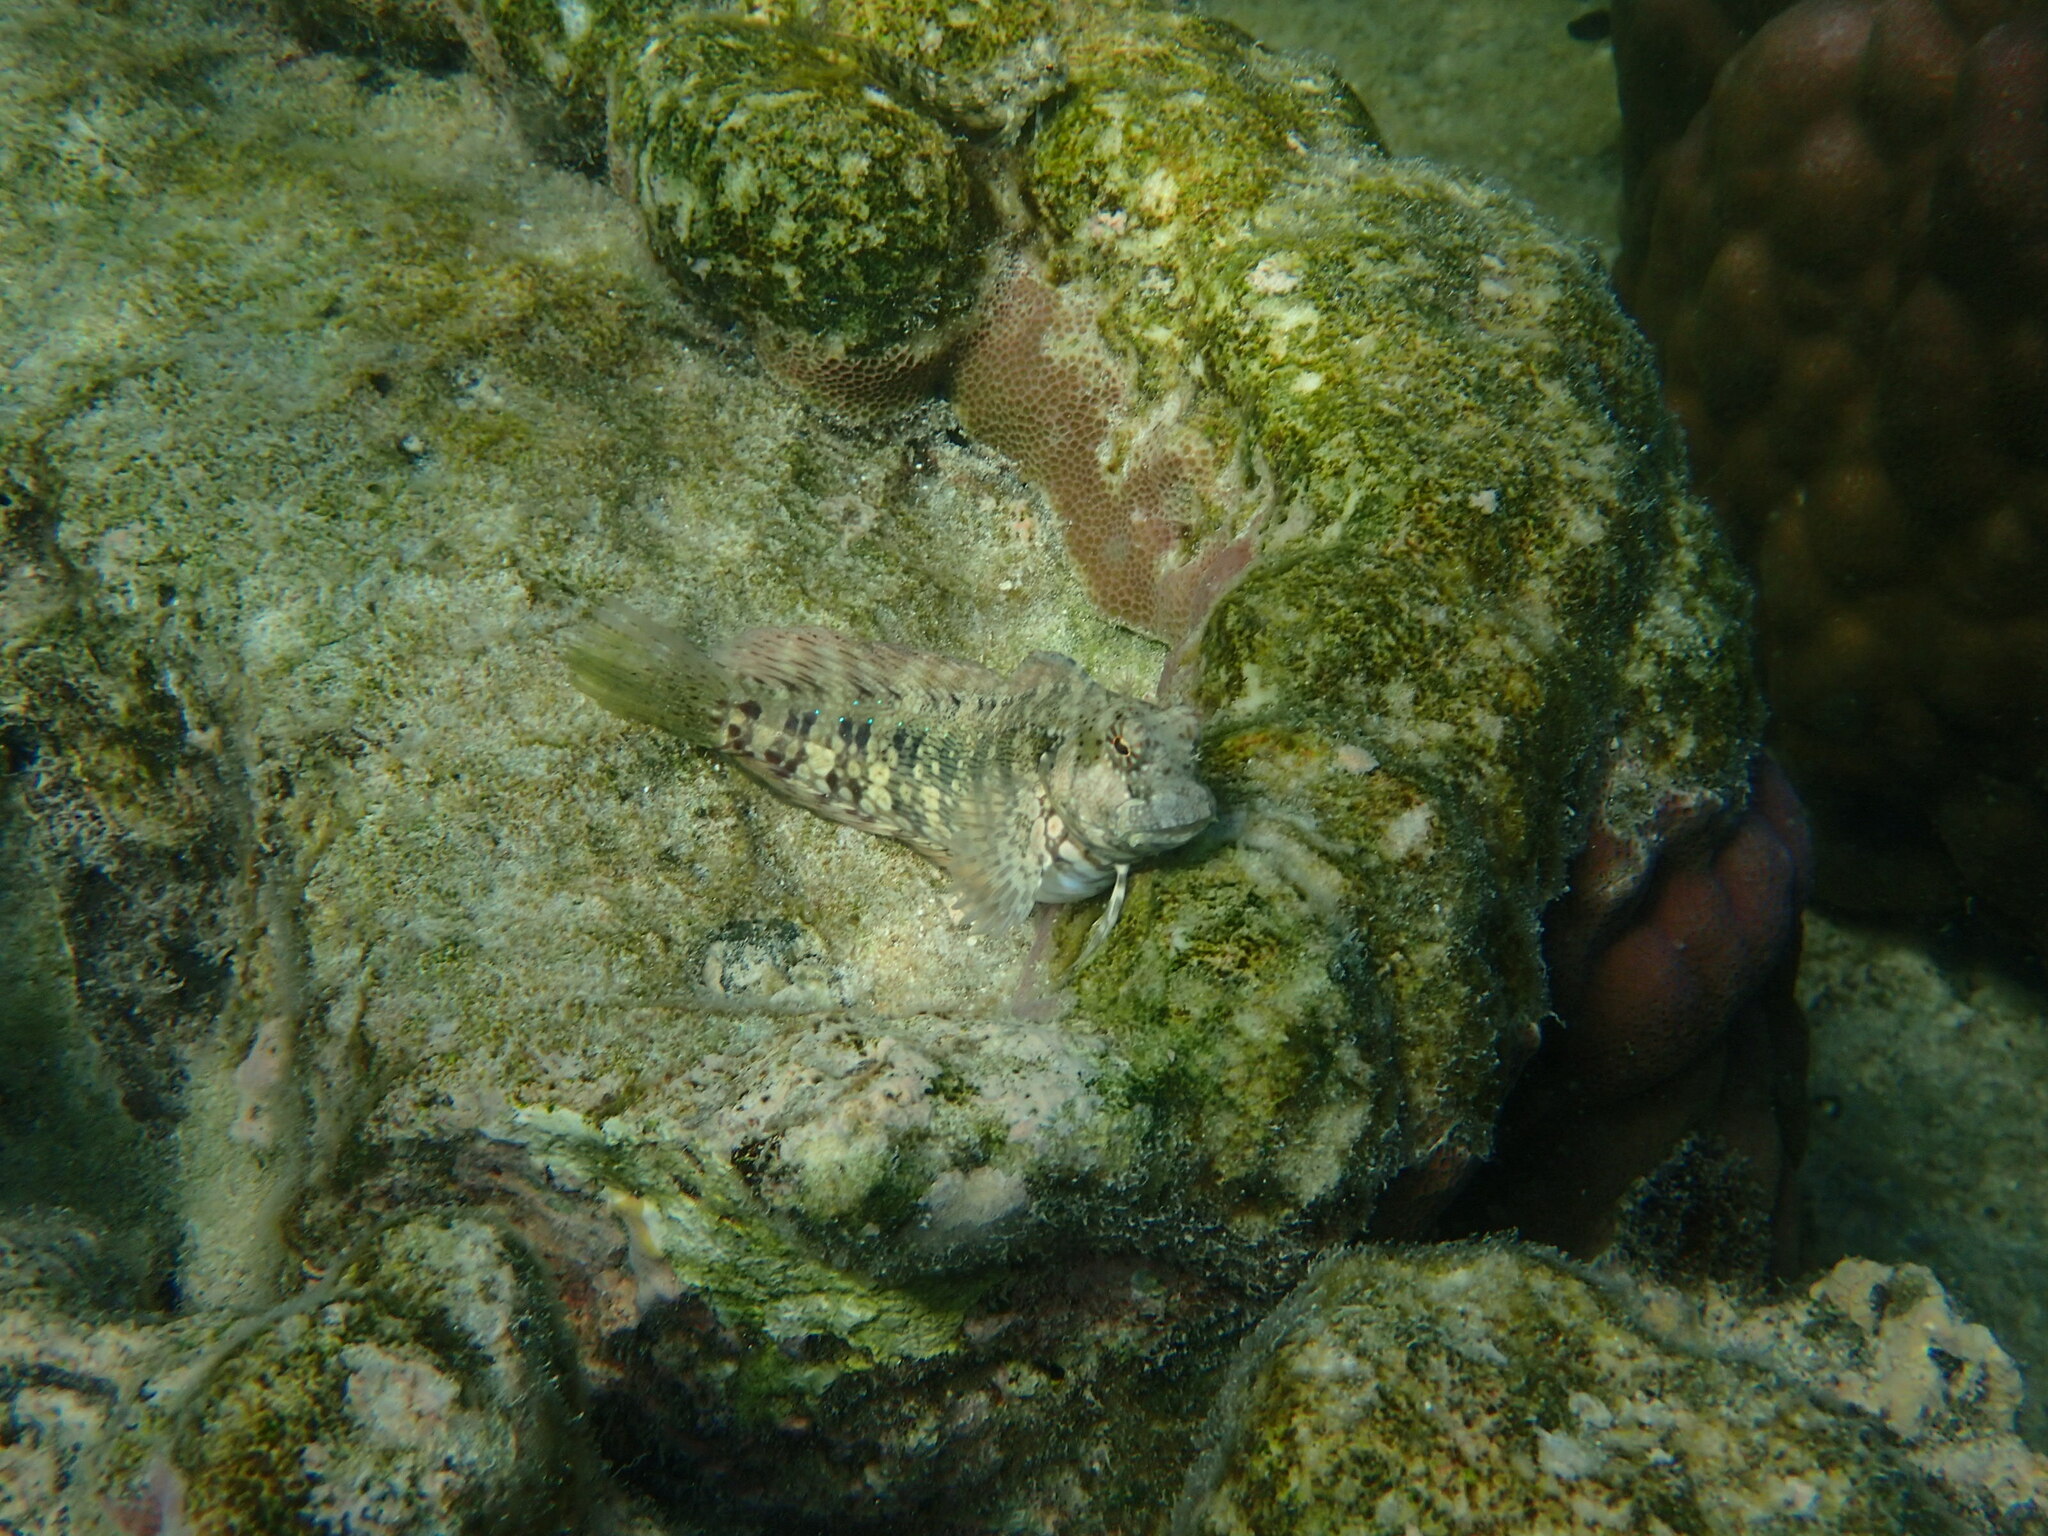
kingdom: Animalia
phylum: Chordata
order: Perciformes
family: Blenniidae
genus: Salarias
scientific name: Salarias fasciatus
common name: Jewelled blenny
